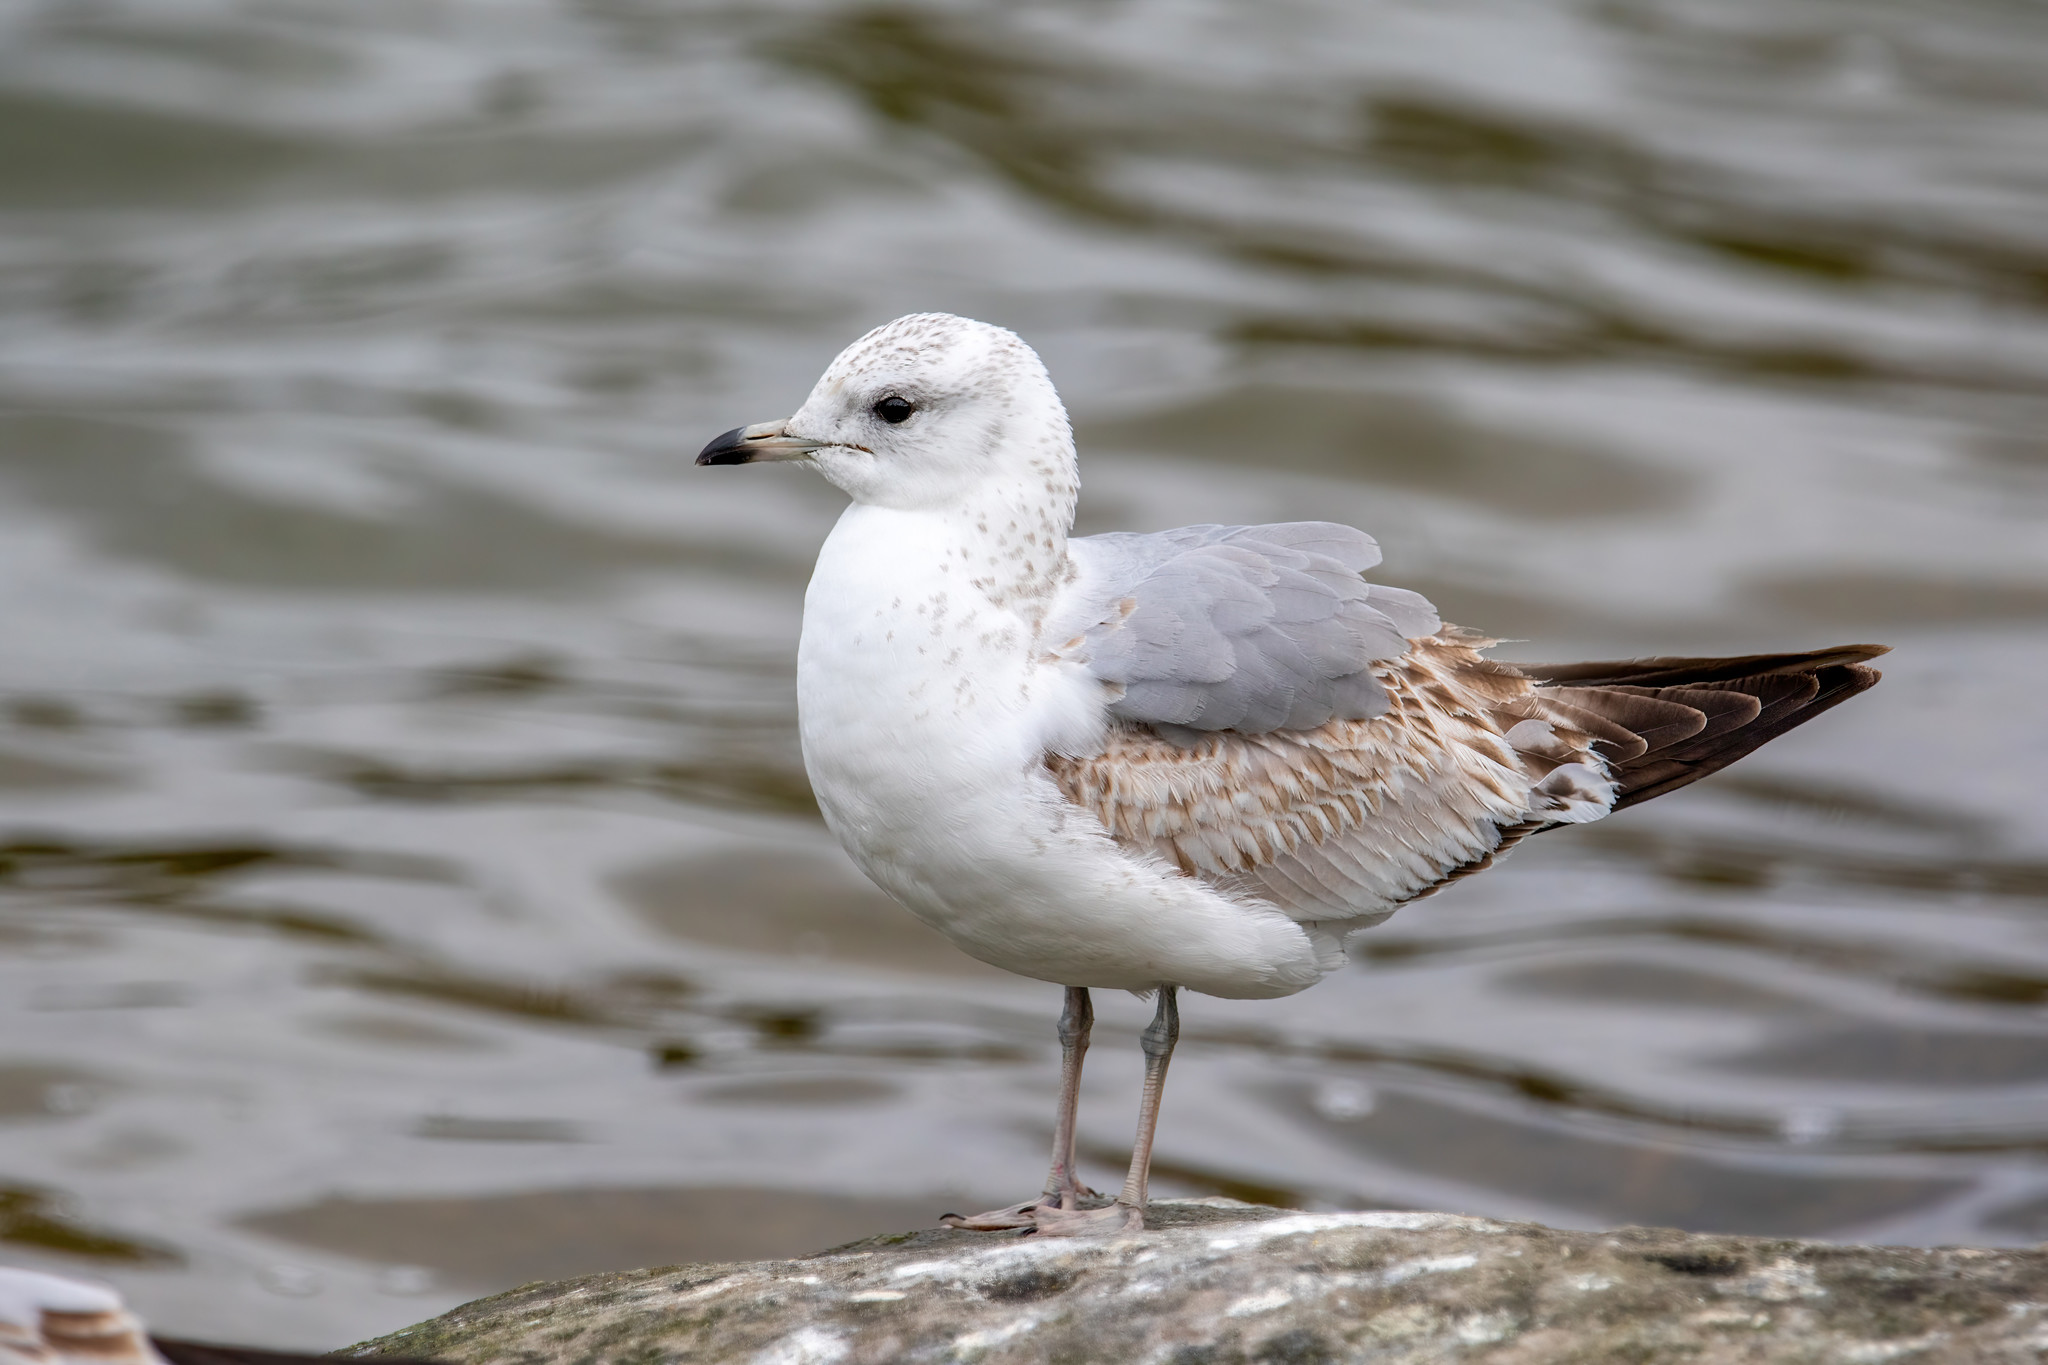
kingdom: Animalia
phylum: Chordata
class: Aves
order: Charadriiformes
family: Laridae
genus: Larus
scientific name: Larus canus
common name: Mew gull
